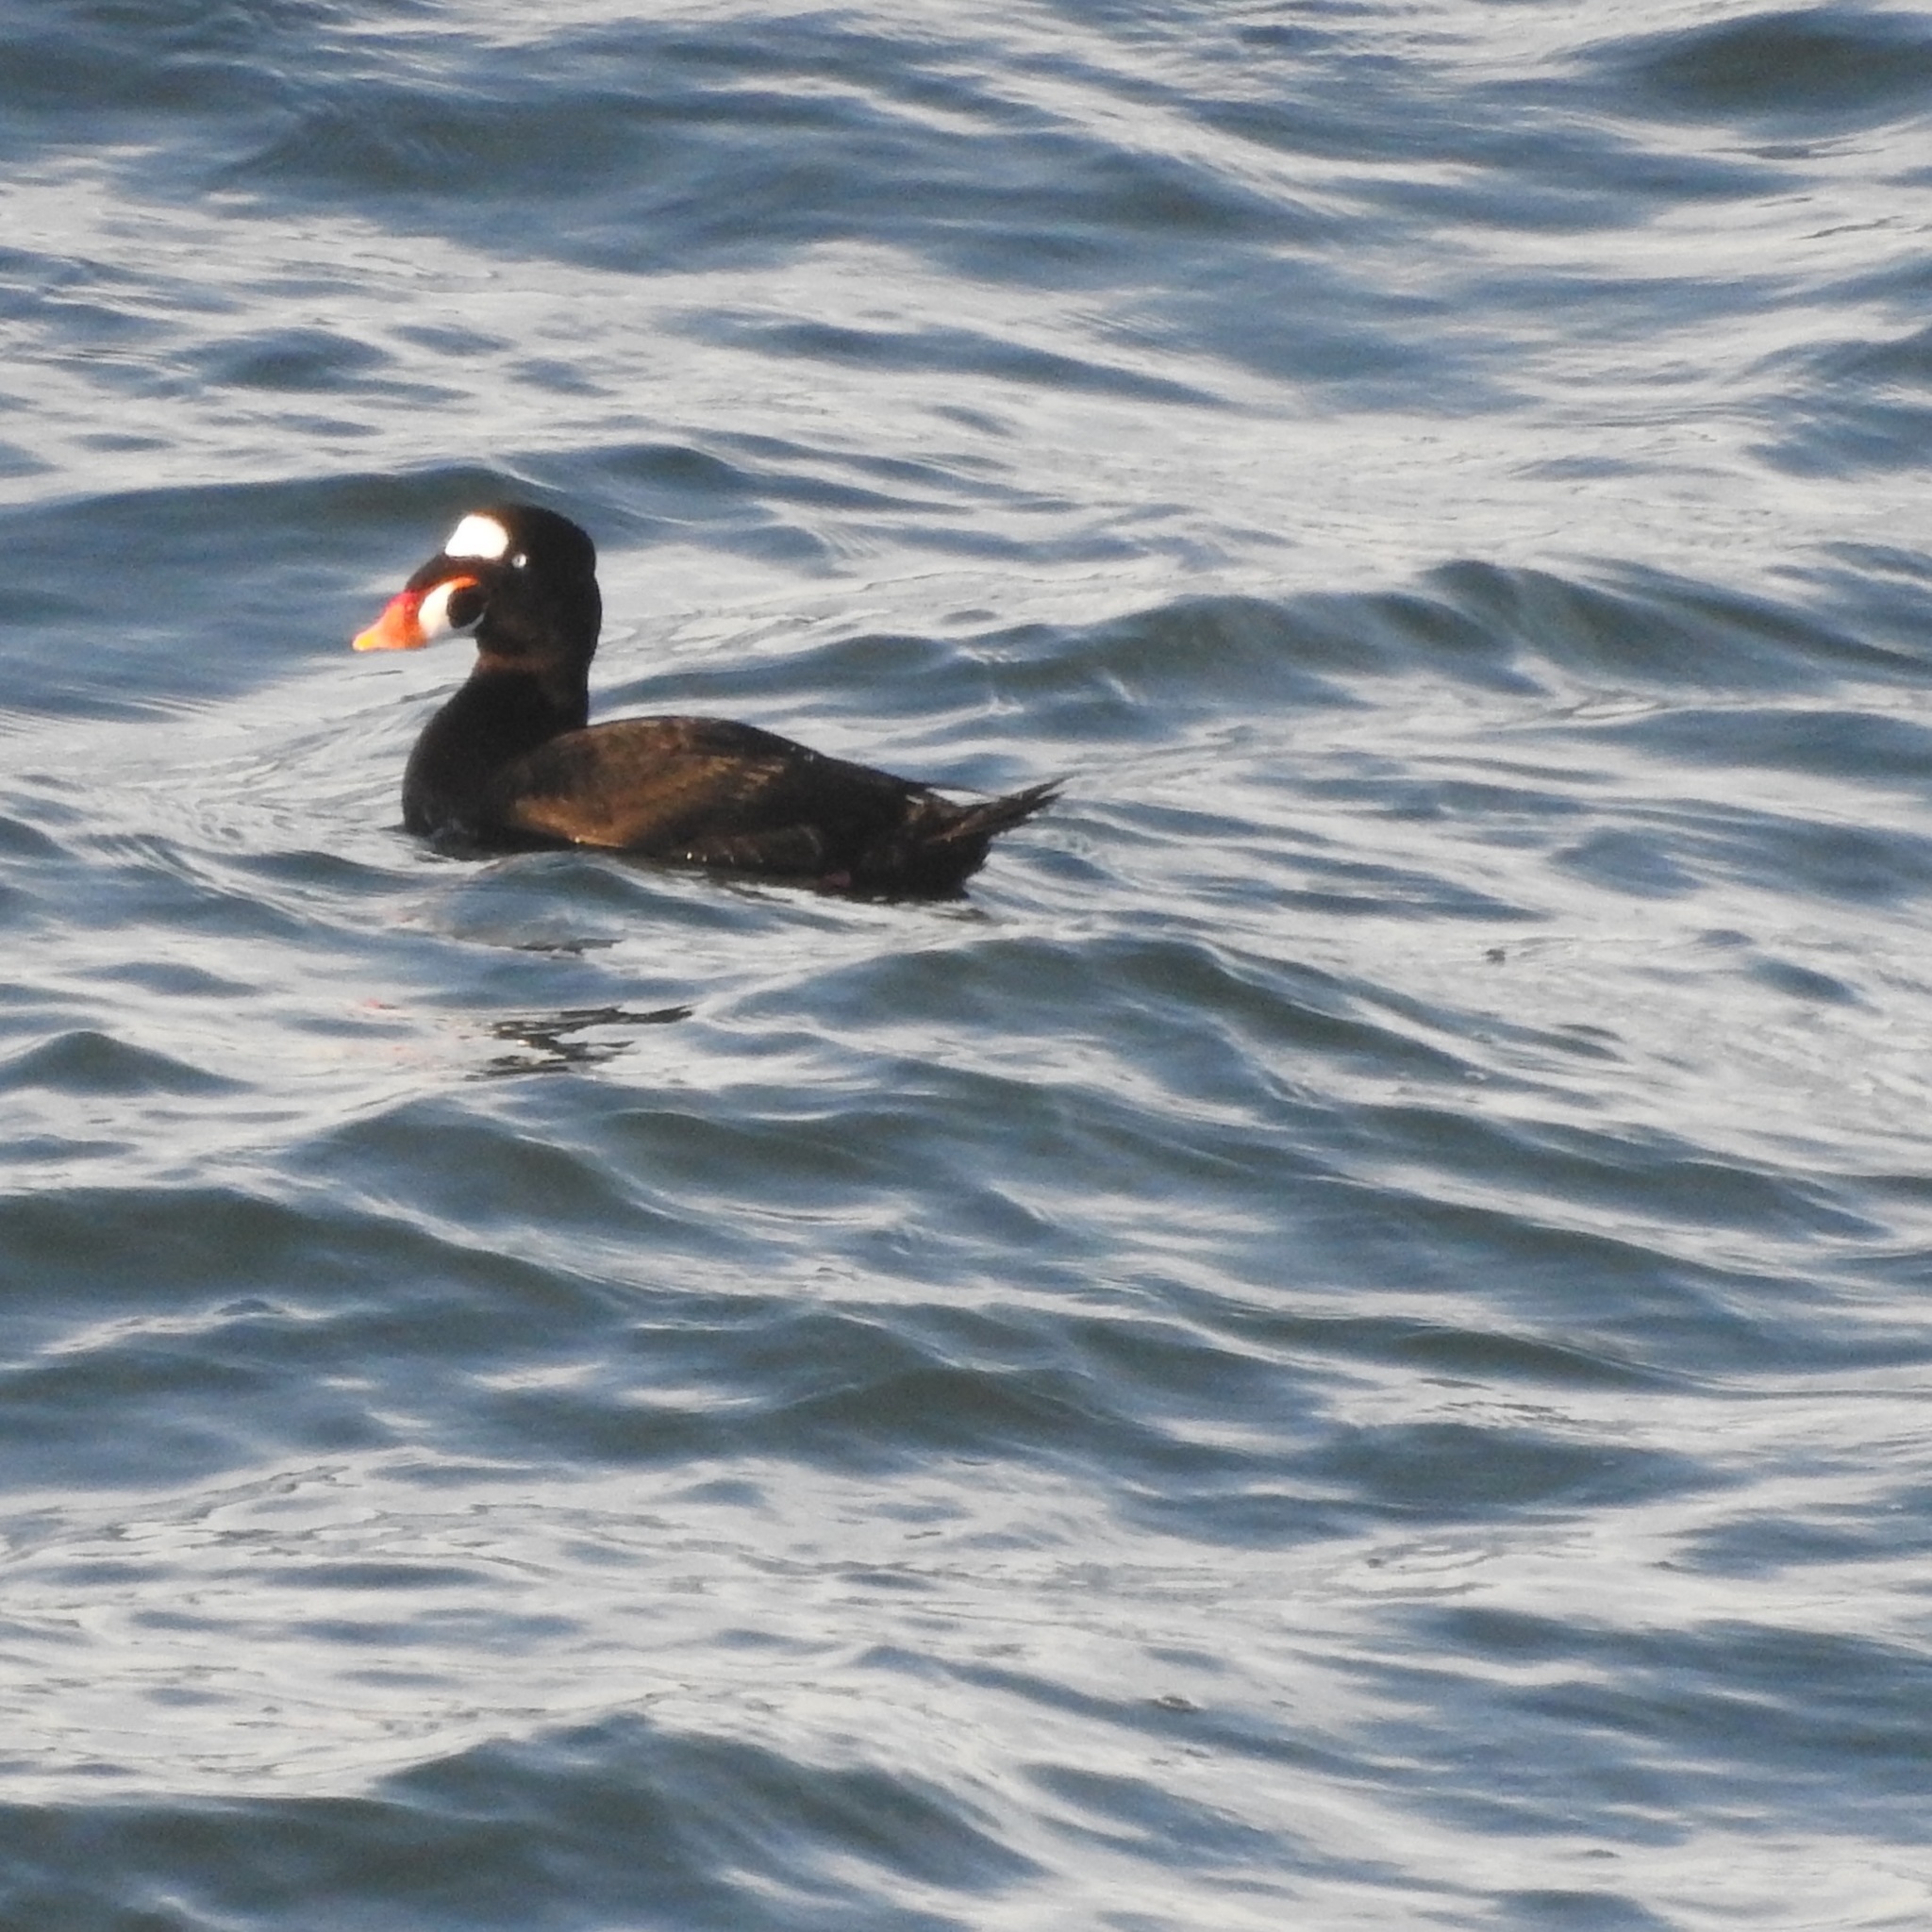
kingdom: Animalia
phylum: Chordata
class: Aves
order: Anseriformes
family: Anatidae
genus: Melanitta
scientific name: Melanitta perspicillata
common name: Surf scoter
